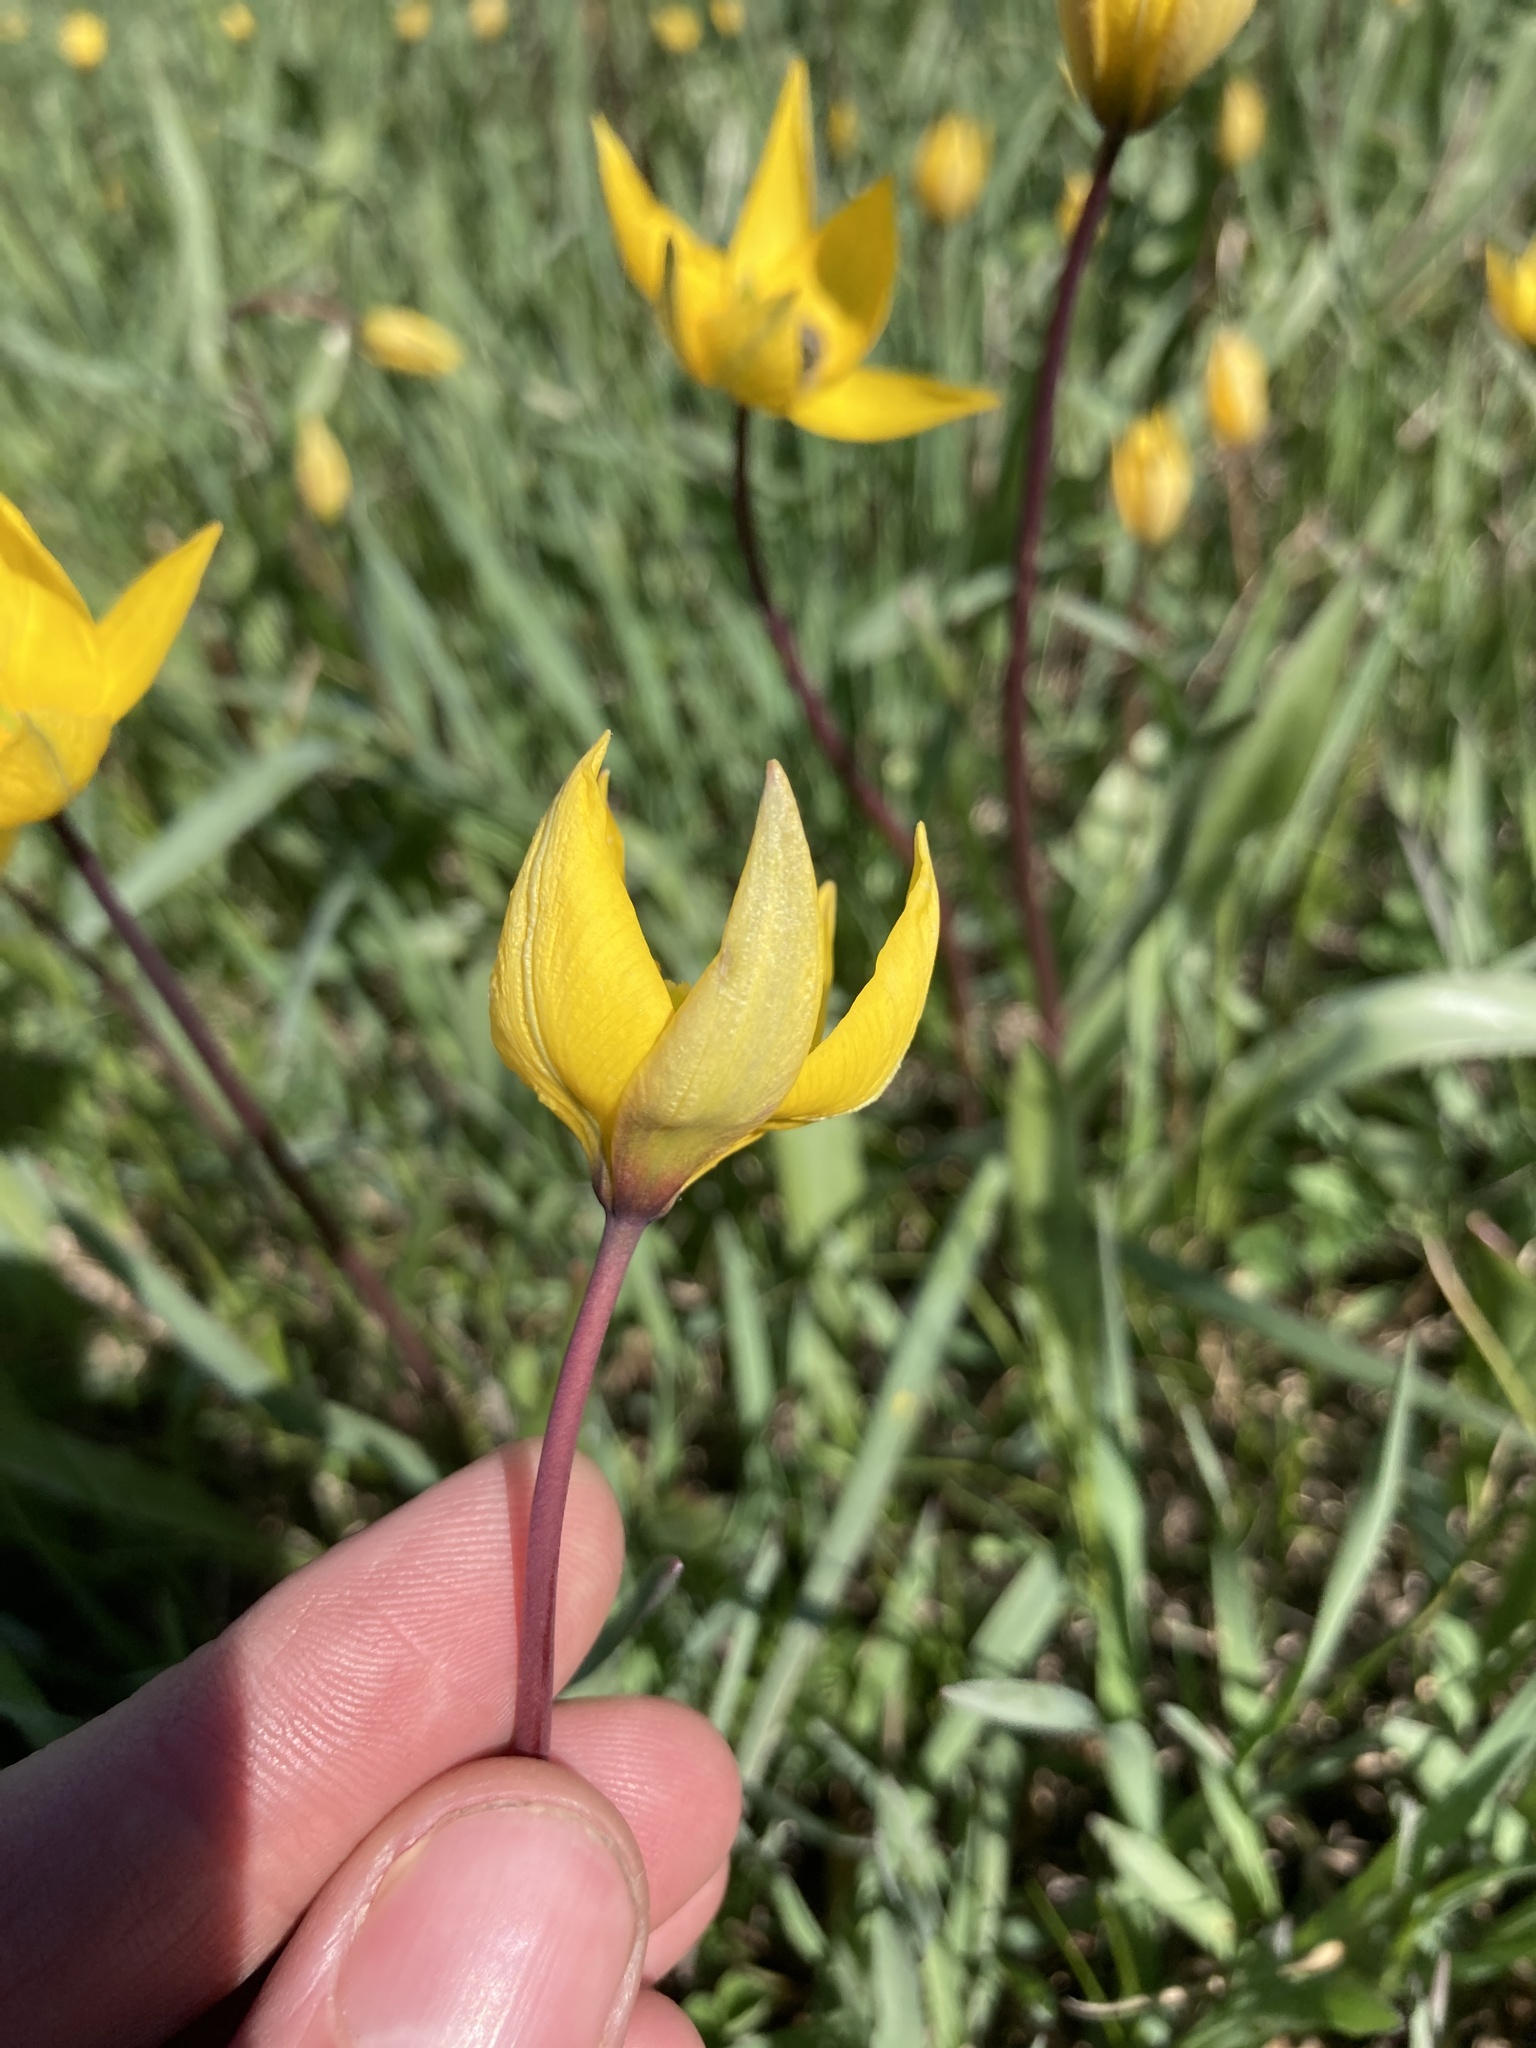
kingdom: Plantae
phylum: Tracheophyta
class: Liliopsida
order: Liliales
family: Liliaceae
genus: Tulipa
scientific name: Tulipa sylvestris
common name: Wild tulip
